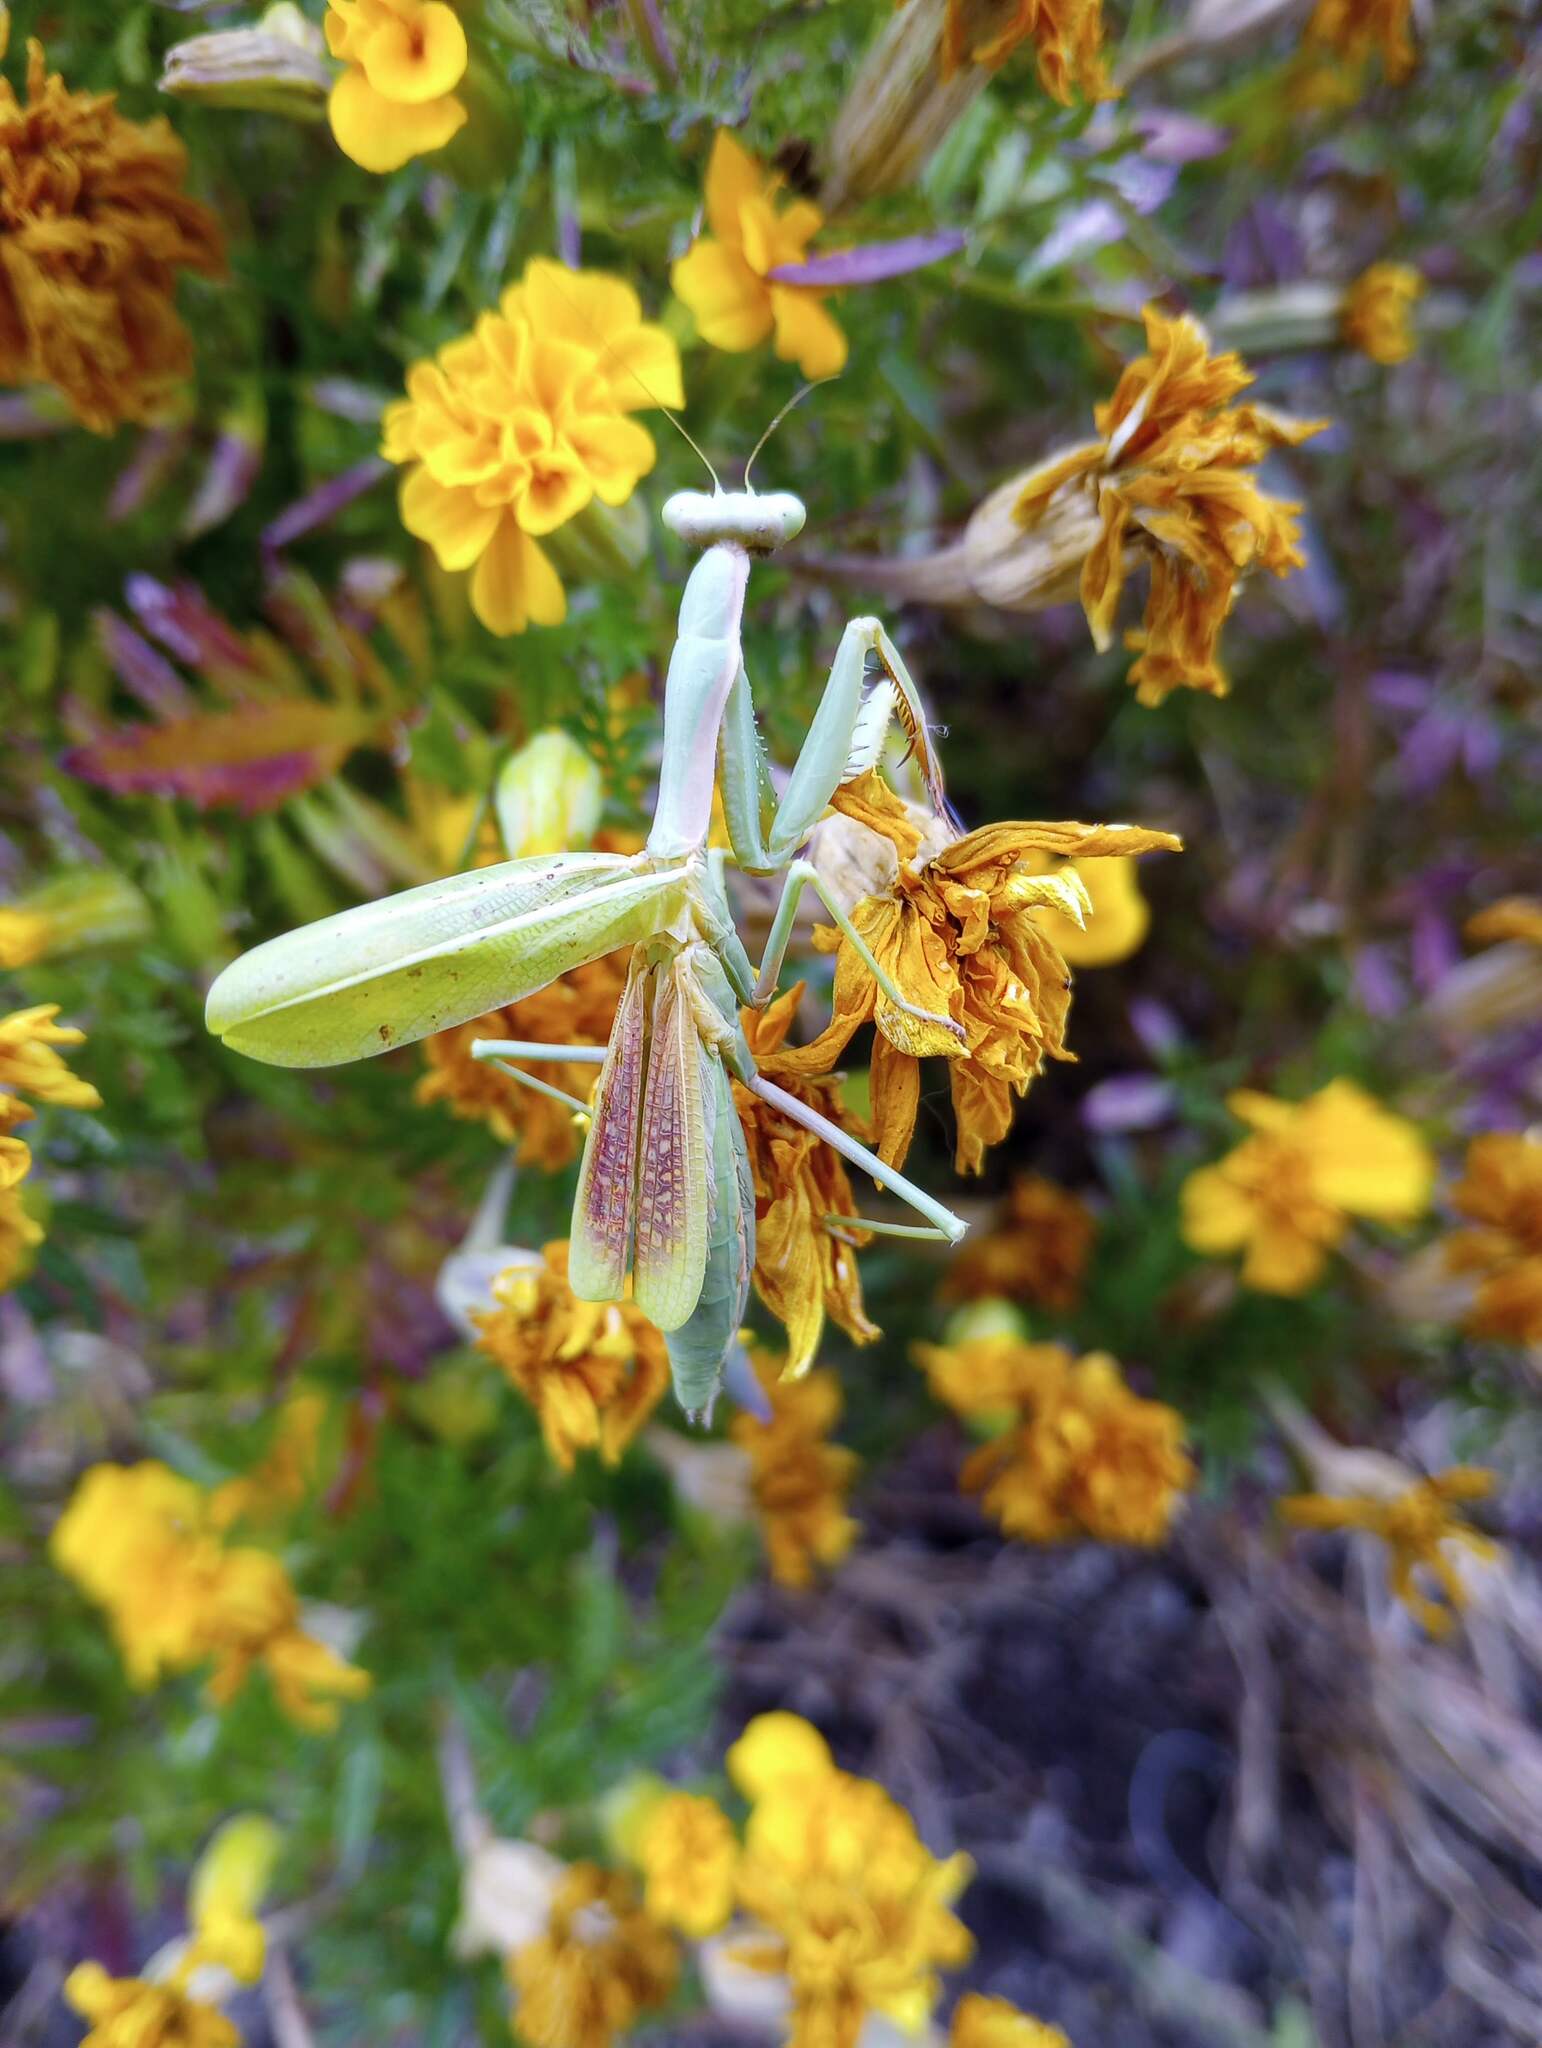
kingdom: Animalia
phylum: Arthropoda
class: Insecta
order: Mantodea
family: Eremiaphilidae
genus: Iris
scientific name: Iris oratoria
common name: Mediterranean mantis
